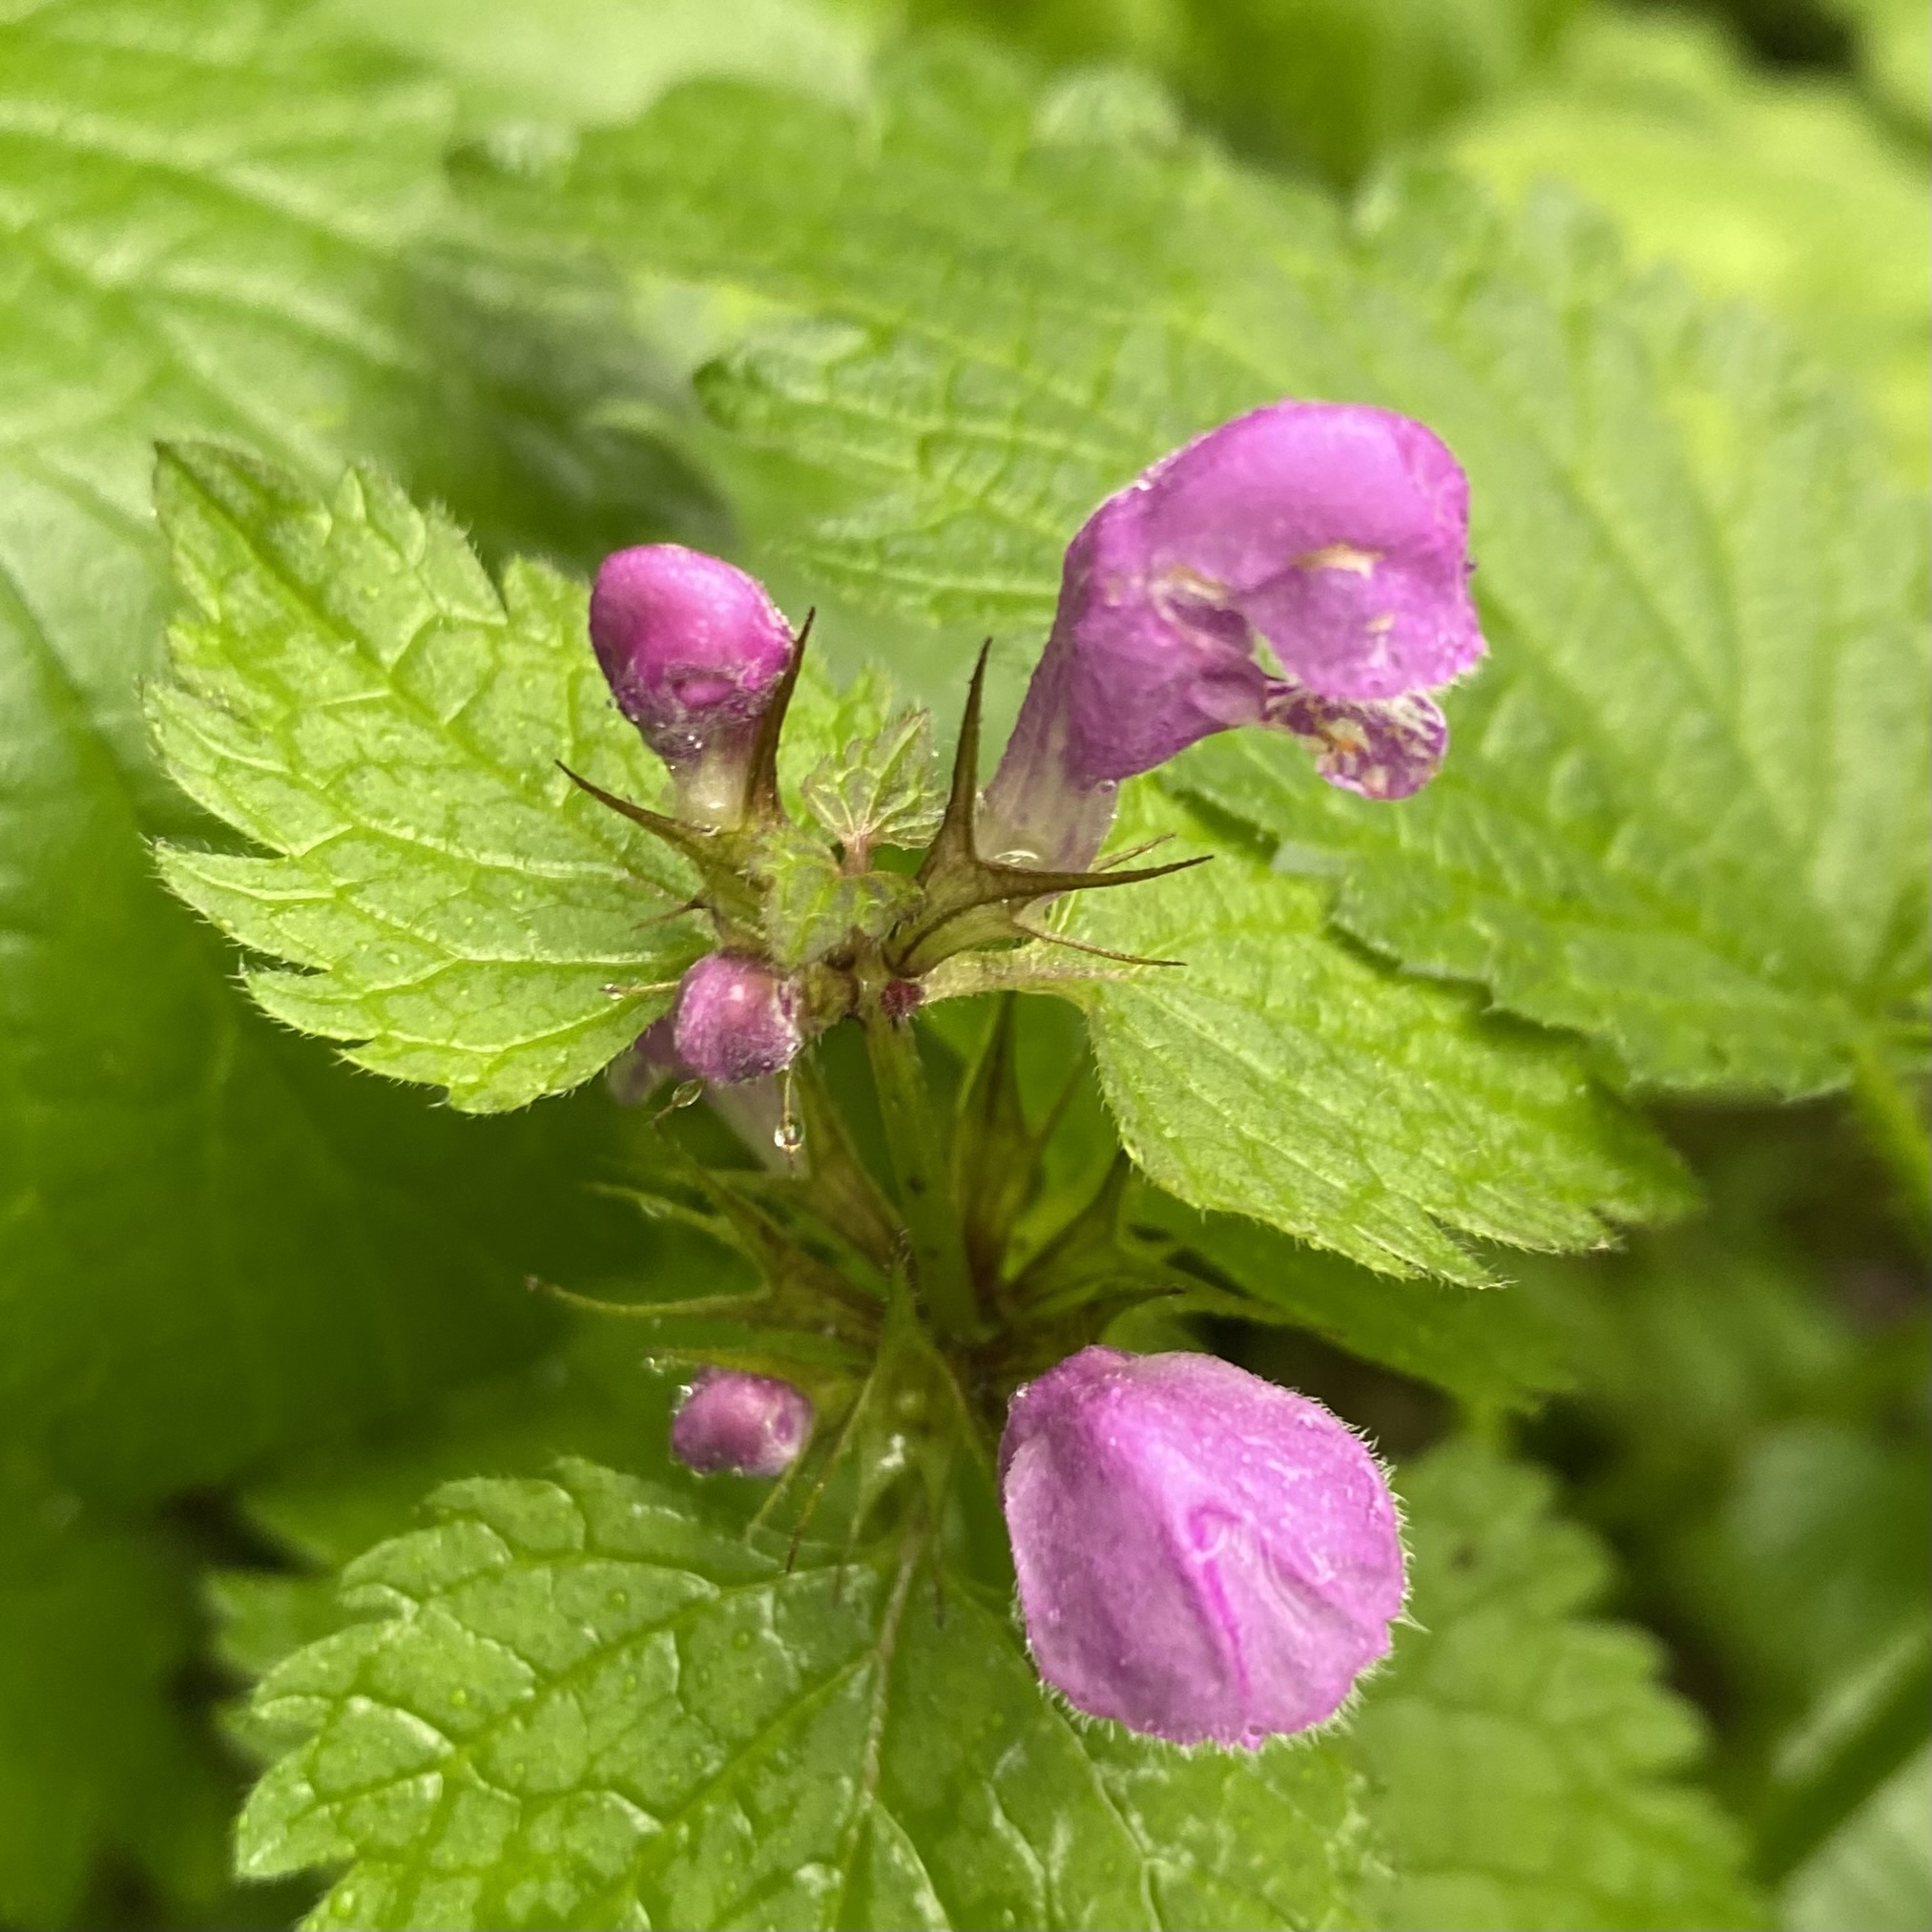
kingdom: Plantae
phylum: Tracheophyta
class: Magnoliopsida
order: Lamiales
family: Lamiaceae
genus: Lamium
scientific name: Lamium maculatum
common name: Spotted dead-nettle
